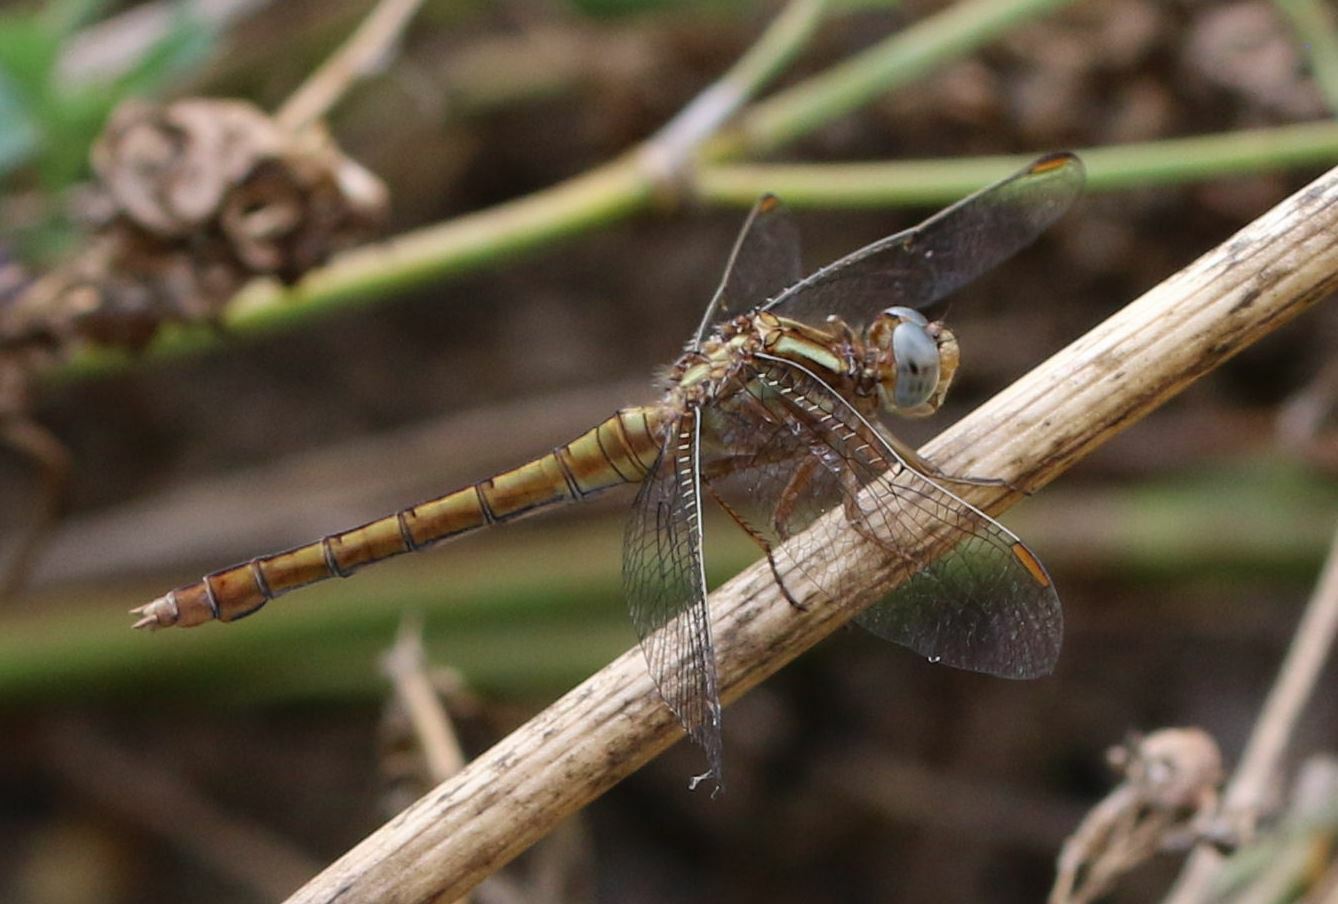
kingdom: Animalia
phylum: Arthropoda
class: Insecta
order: Odonata
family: Libellulidae
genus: Orthetrum
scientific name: Orthetrum coerulescens
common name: Keeled skimmer
